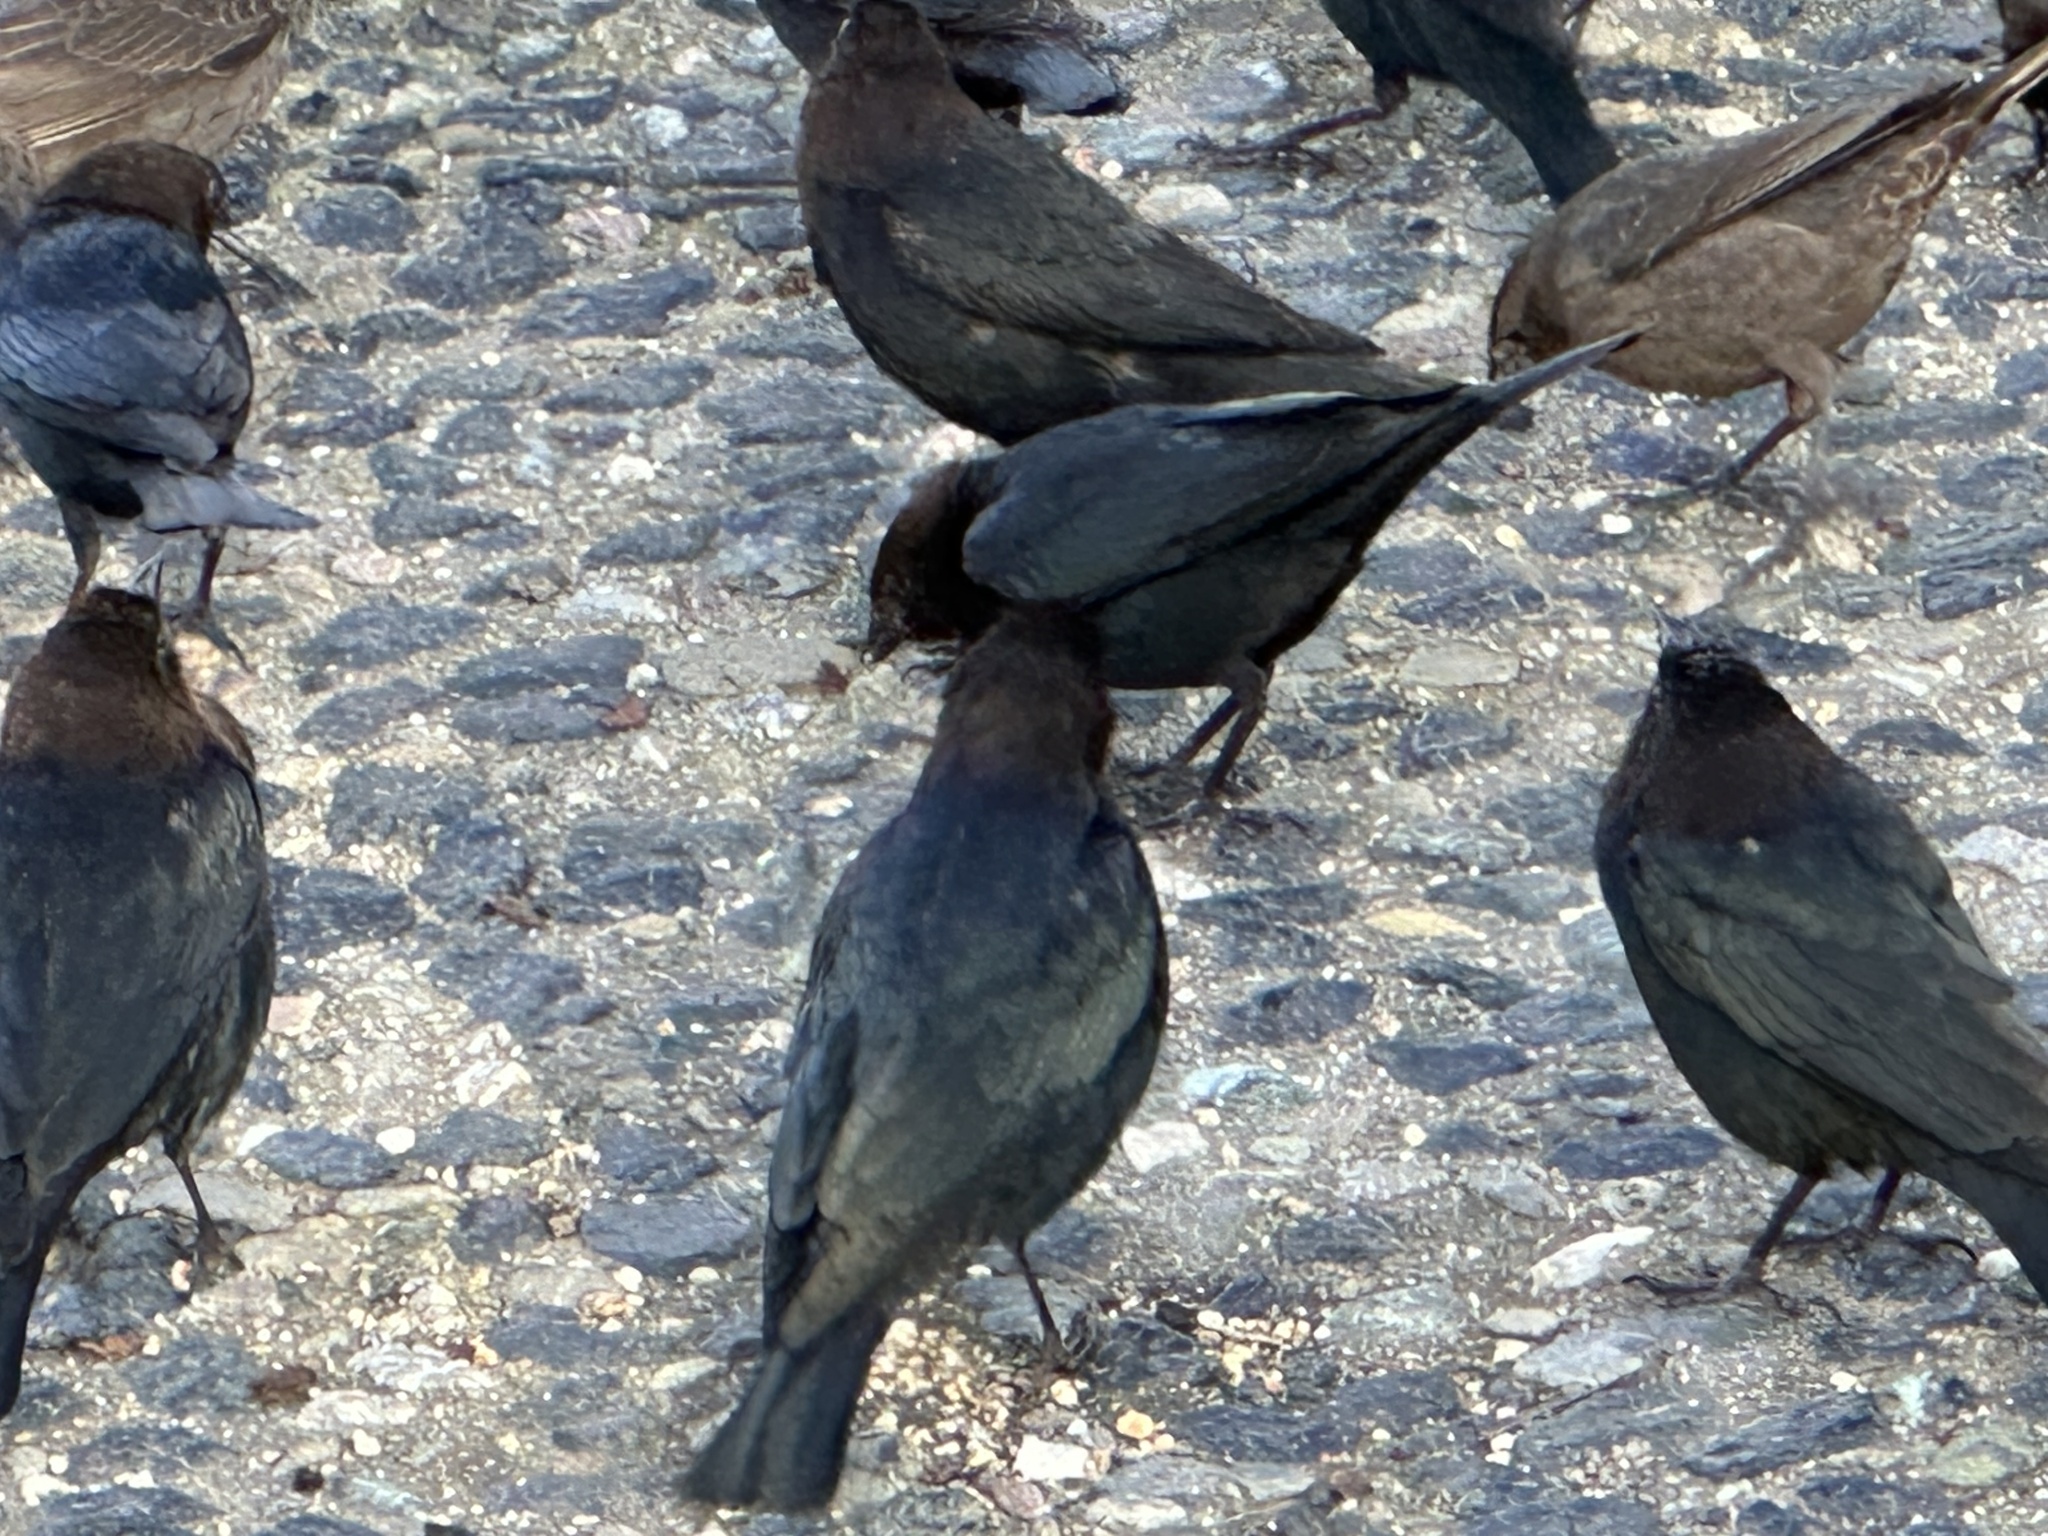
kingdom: Animalia
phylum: Chordata
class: Aves
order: Passeriformes
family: Icteridae
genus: Molothrus
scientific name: Molothrus ater
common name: Brown-headed cowbird
